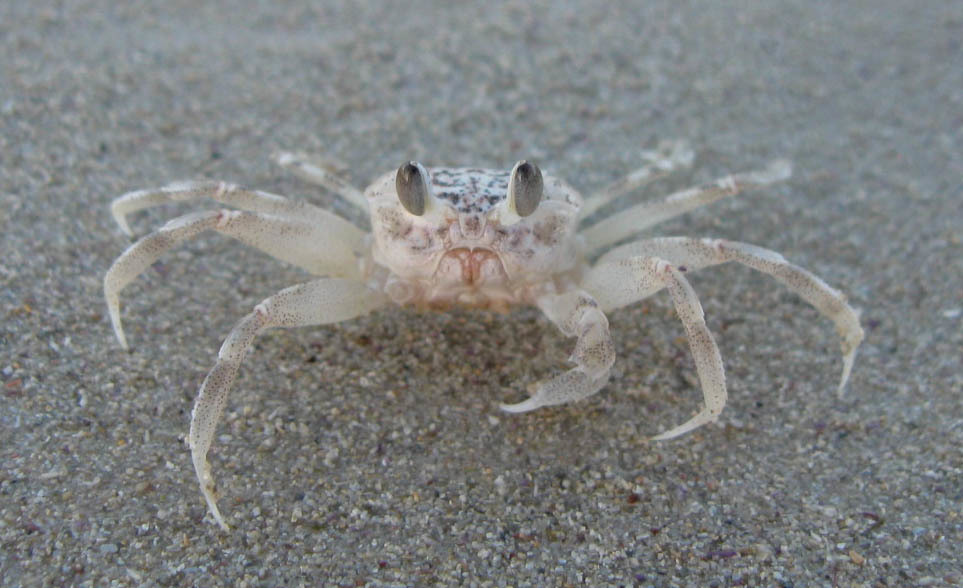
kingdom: Animalia
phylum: Arthropoda
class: Malacostraca
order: Decapoda
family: Ocypodidae
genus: Ocypode
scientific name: Ocypode
